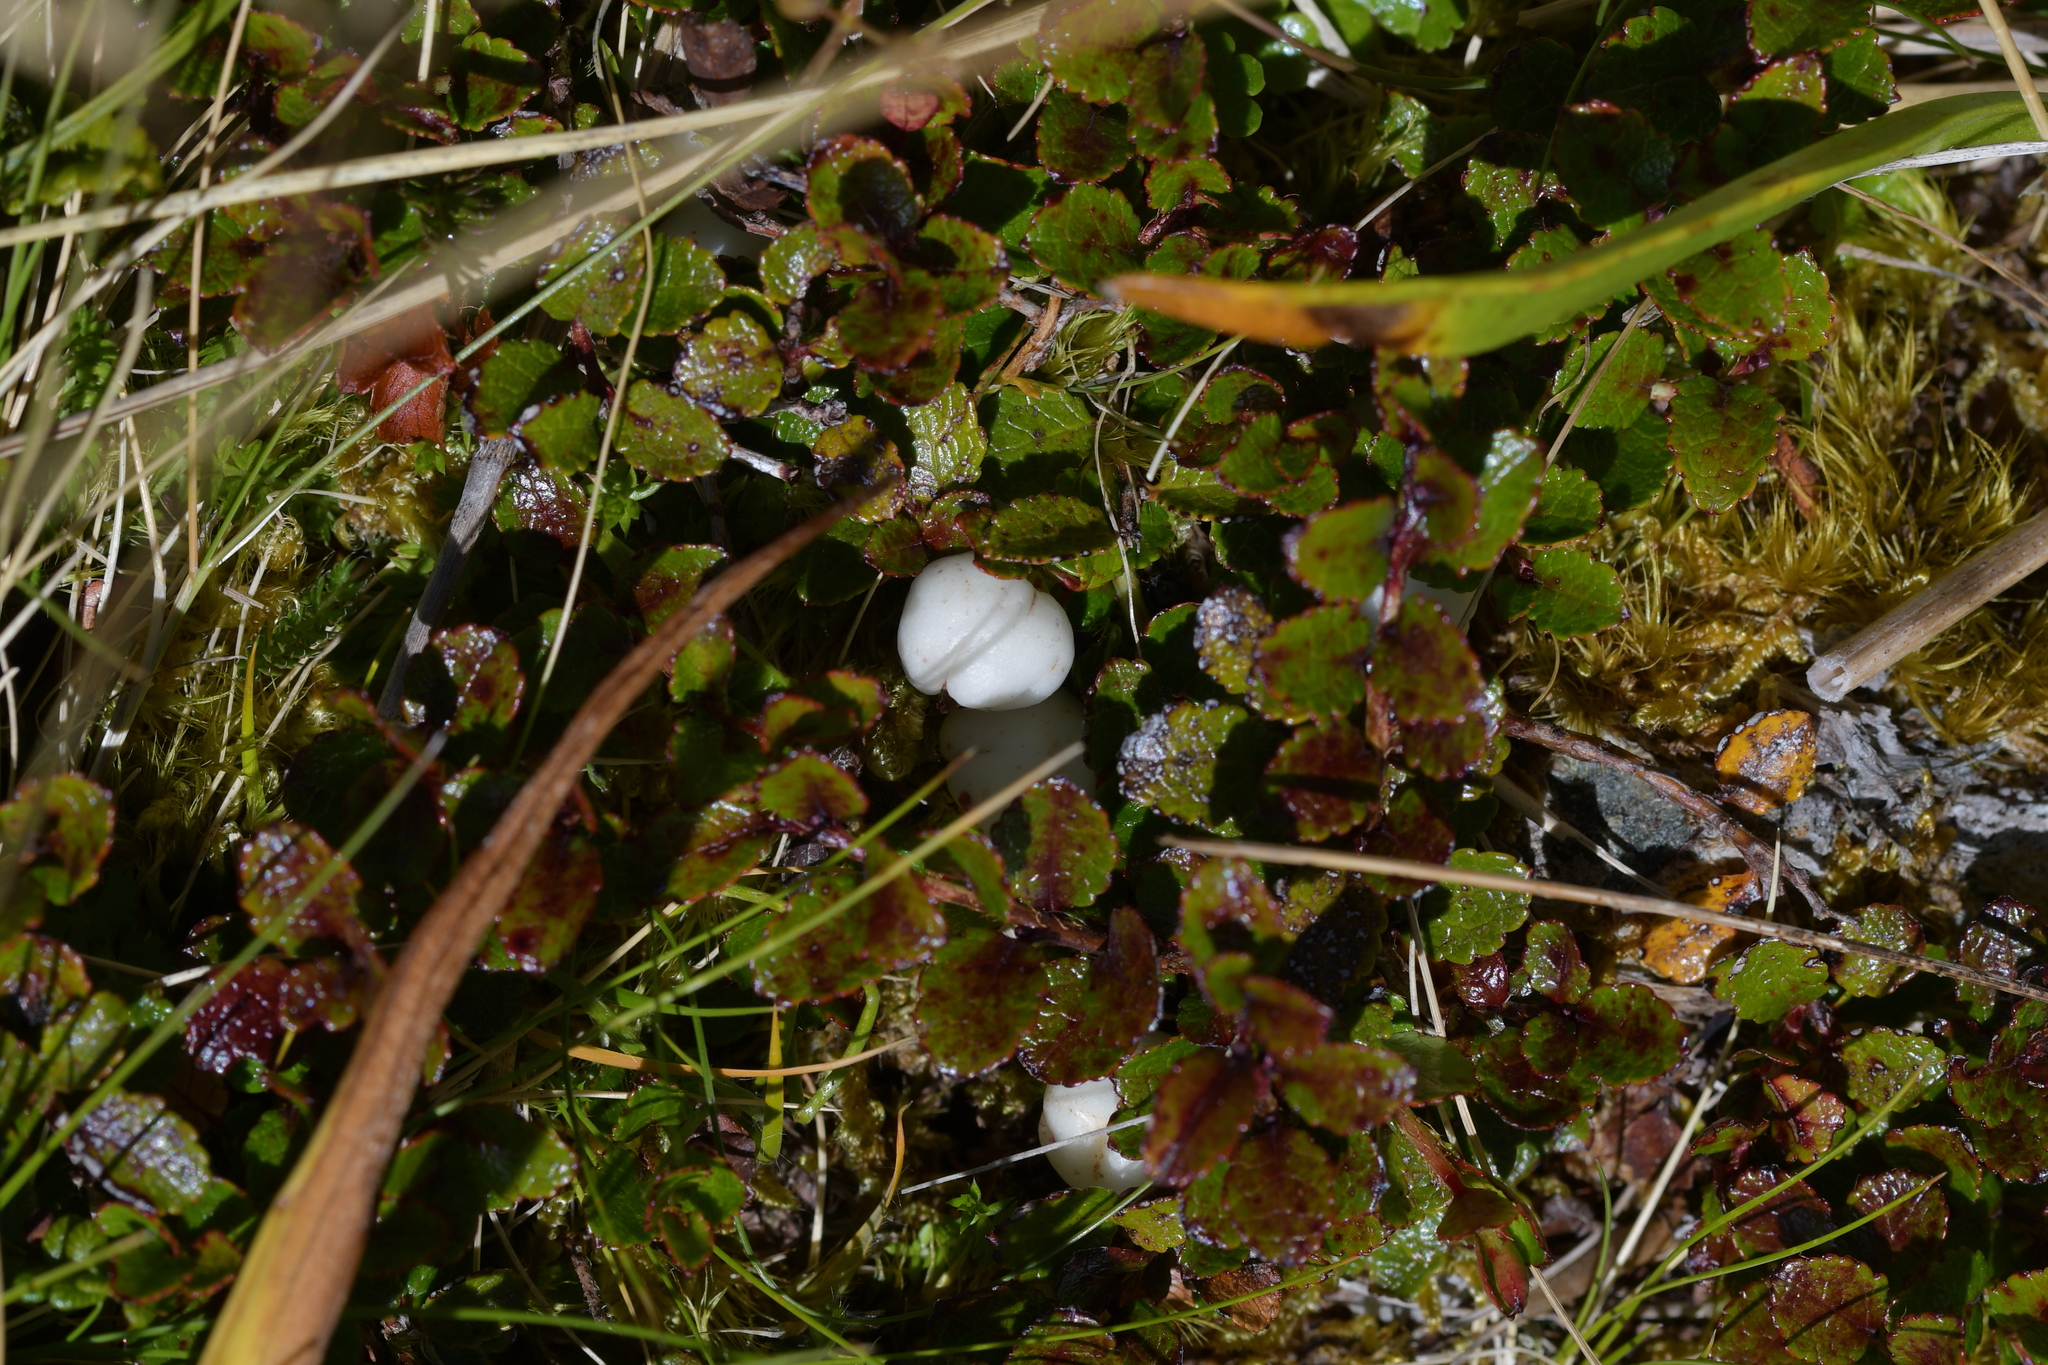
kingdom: Plantae
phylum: Tracheophyta
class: Magnoliopsida
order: Ericales
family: Ericaceae
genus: Gaultheria
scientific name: Gaultheria depressa
